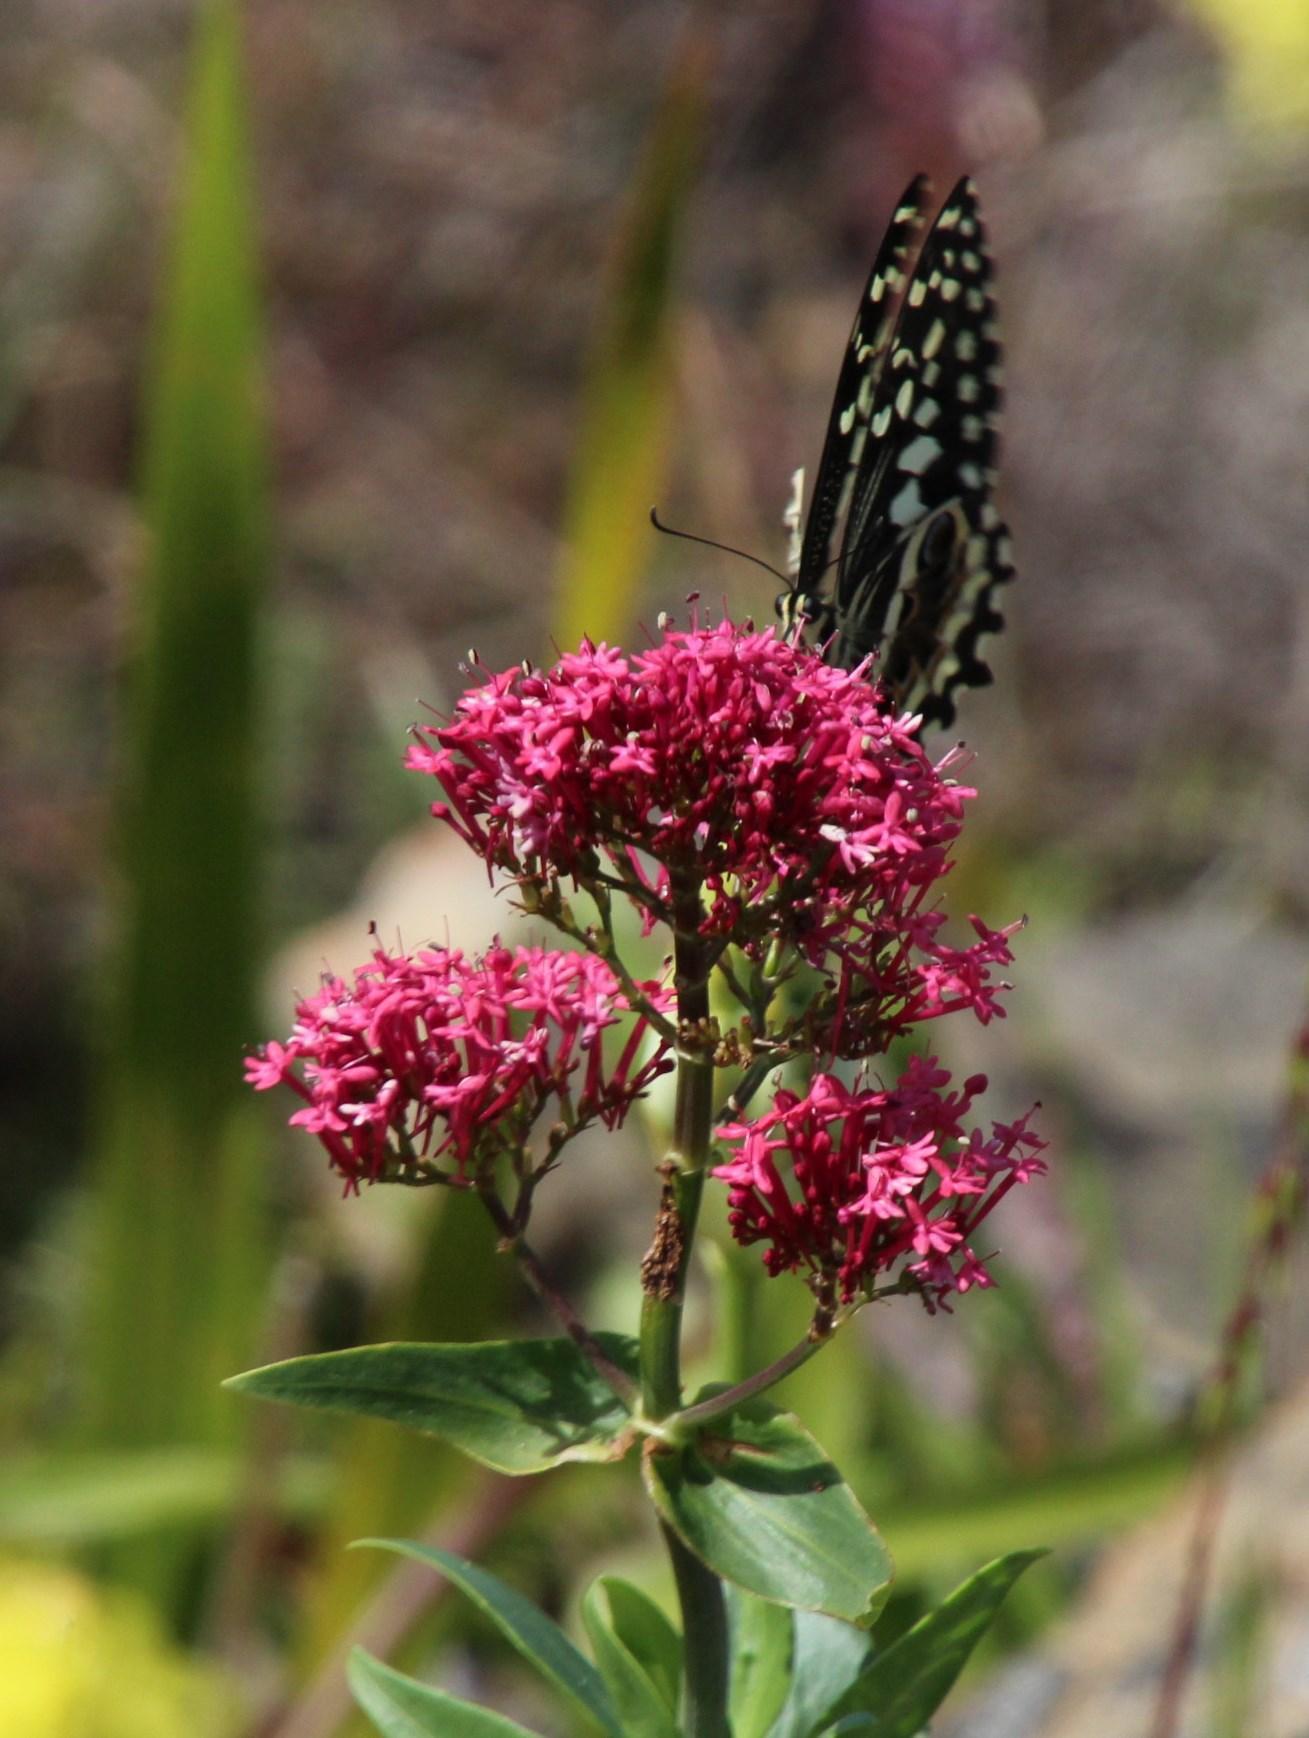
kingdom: Animalia
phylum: Arthropoda
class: Insecta
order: Lepidoptera
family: Papilionidae
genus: Papilio
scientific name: Papilio demodocus
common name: Christmas butterfly
